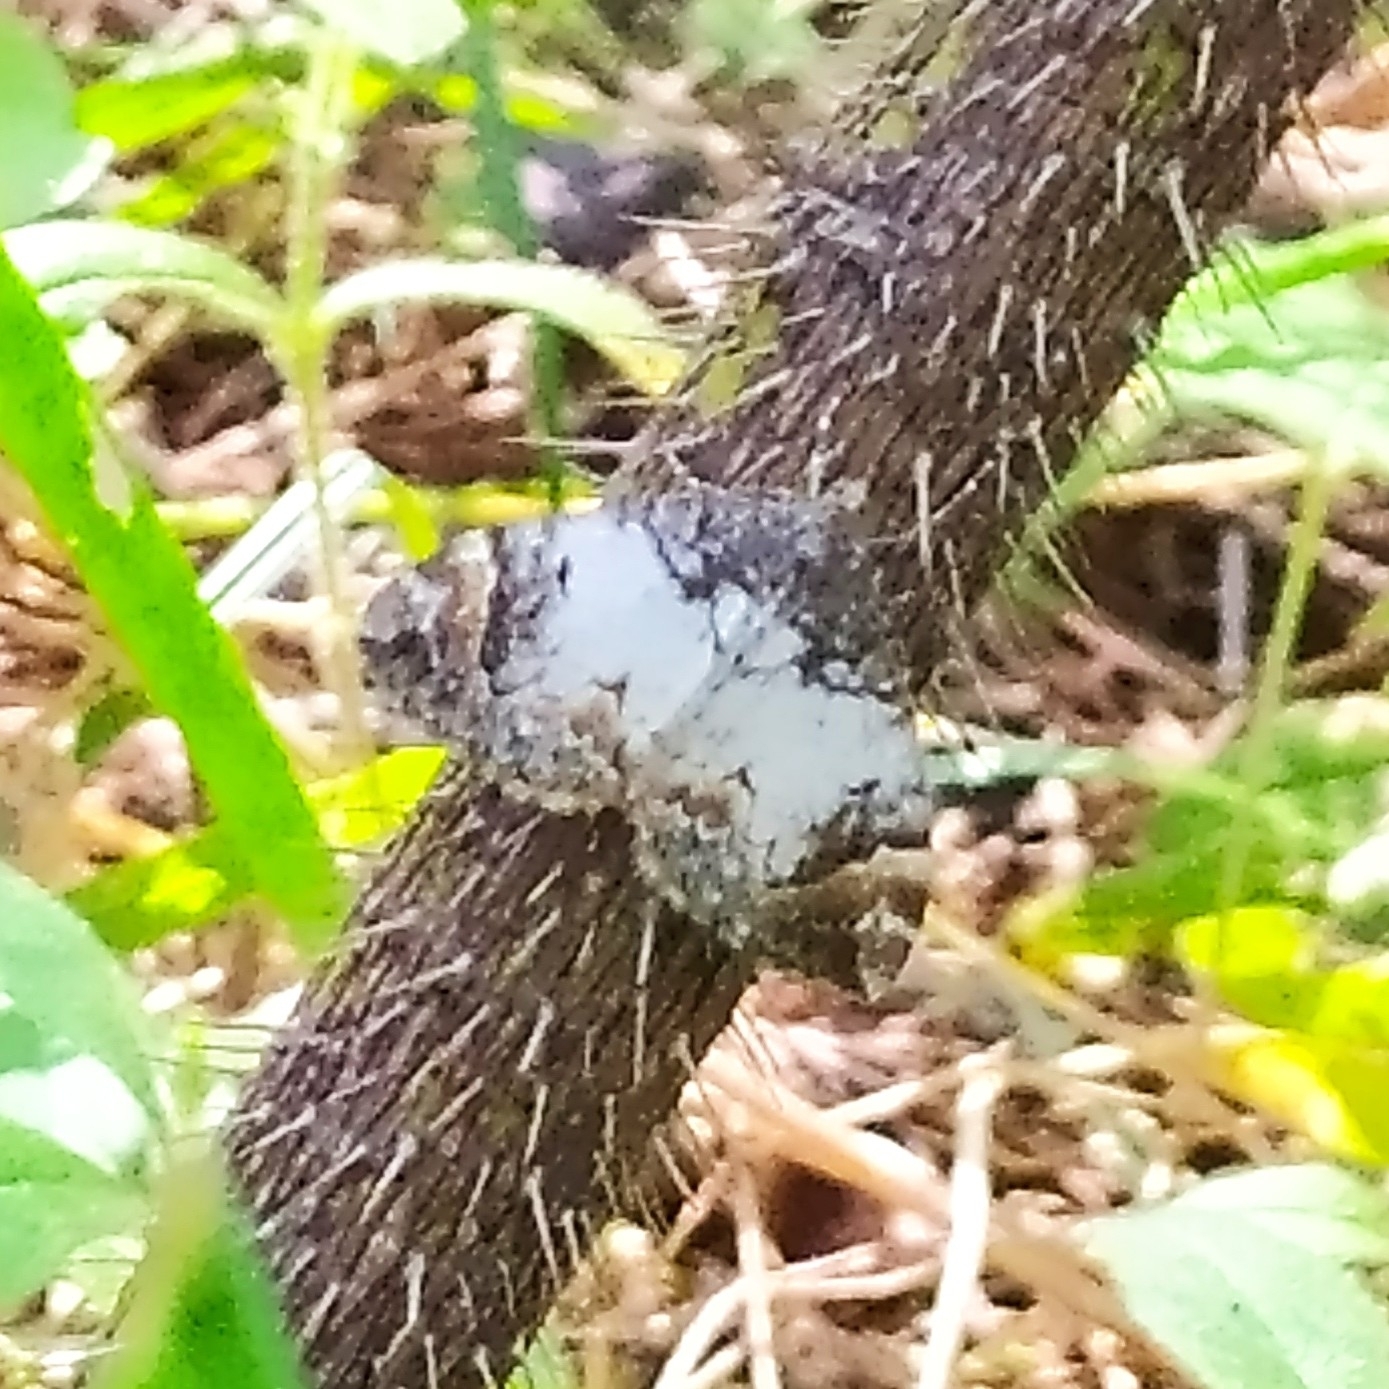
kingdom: Animalia
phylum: Arthropoda
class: Insecta
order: Lepidoptera
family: Geometridae
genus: Dysstroma
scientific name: Dysstroma latefasciata
